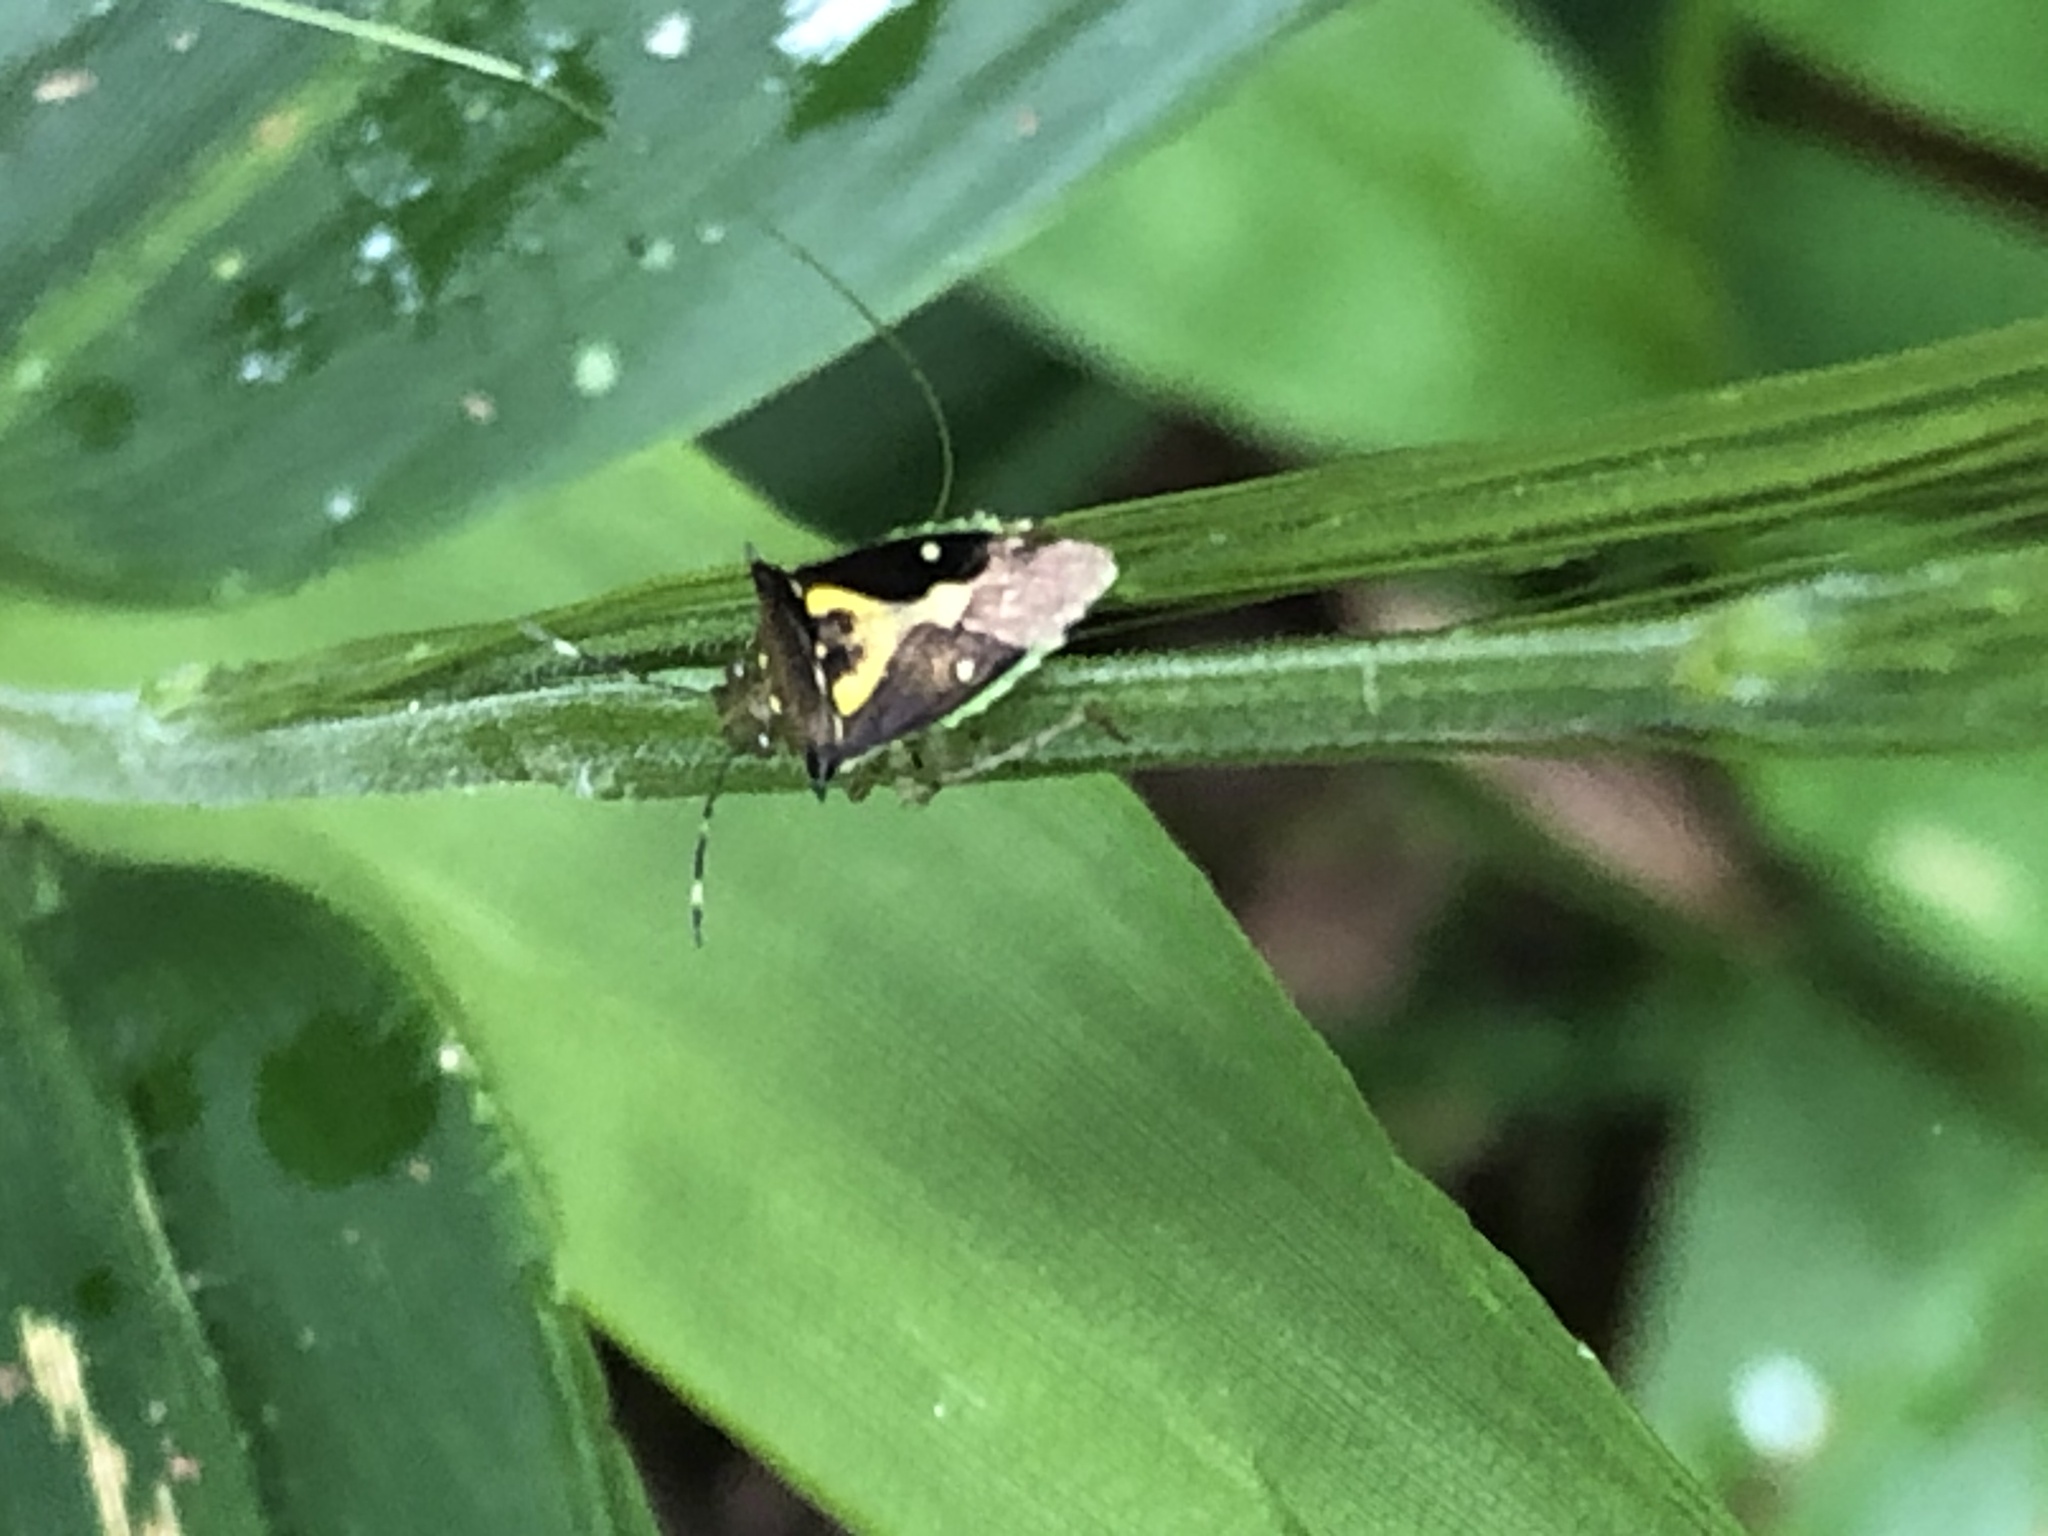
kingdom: Animalia
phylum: Arthropoda
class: Insecta
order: Hemiptera
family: Pentatomidae
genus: Mormidea
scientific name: Mormidea ypsilon
